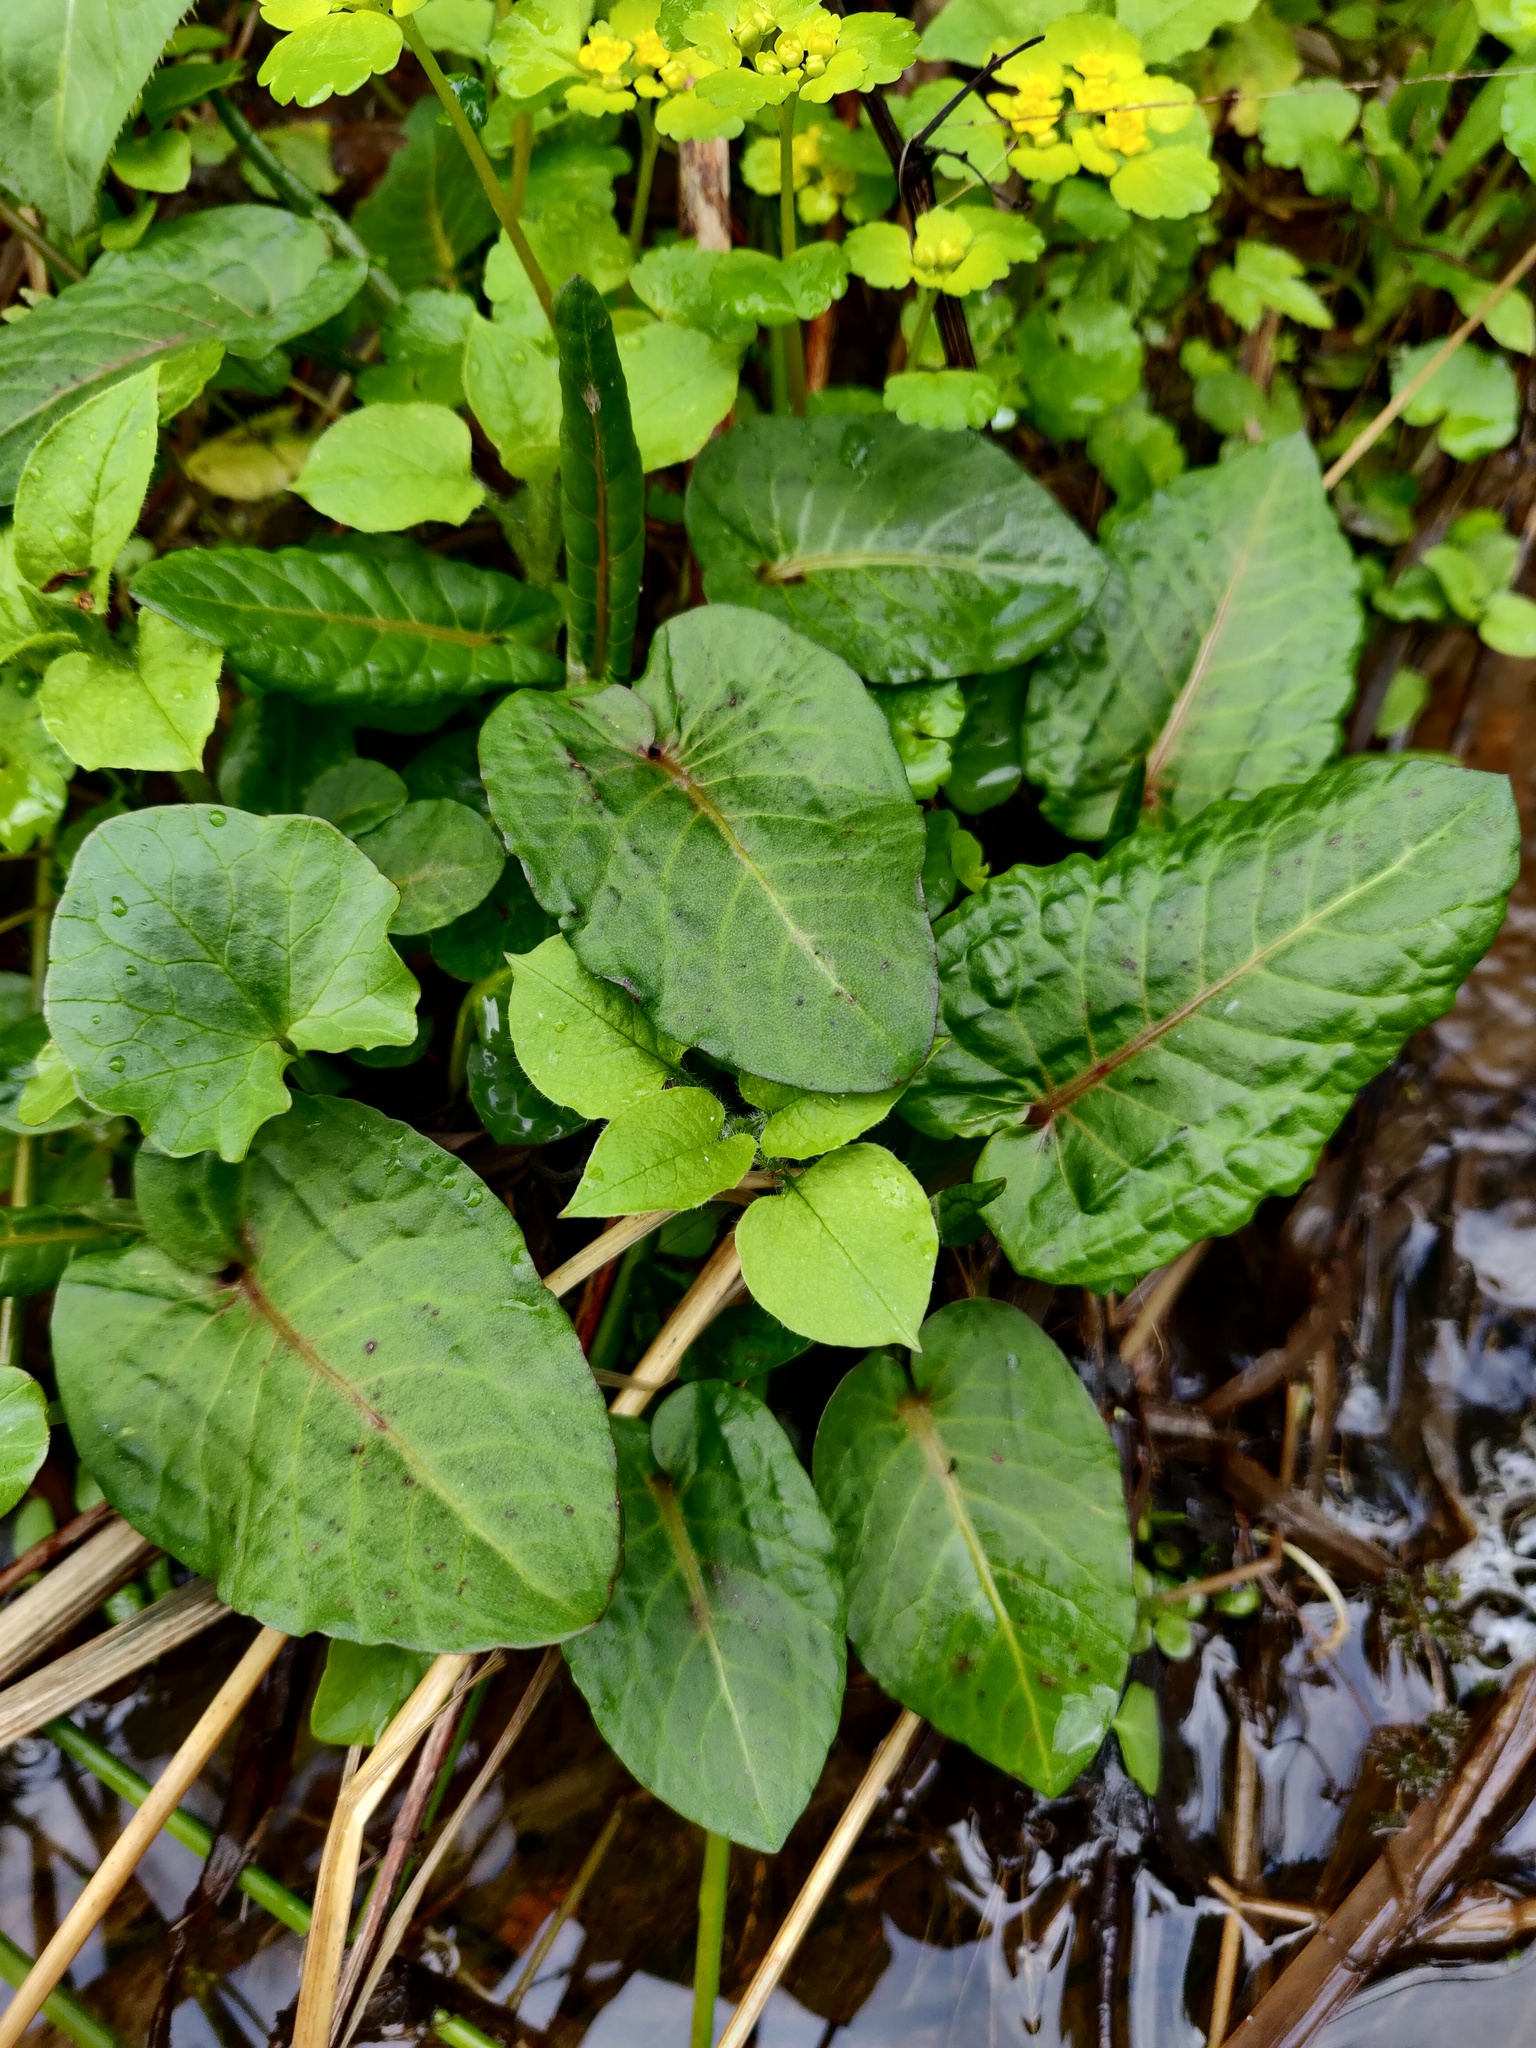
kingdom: Plantae
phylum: Tracheophyta
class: Magnoliopsida
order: Caryophyllales
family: Polygonaceae
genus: Rumex
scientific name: Rumex obtusifolius
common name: Bitter dock
